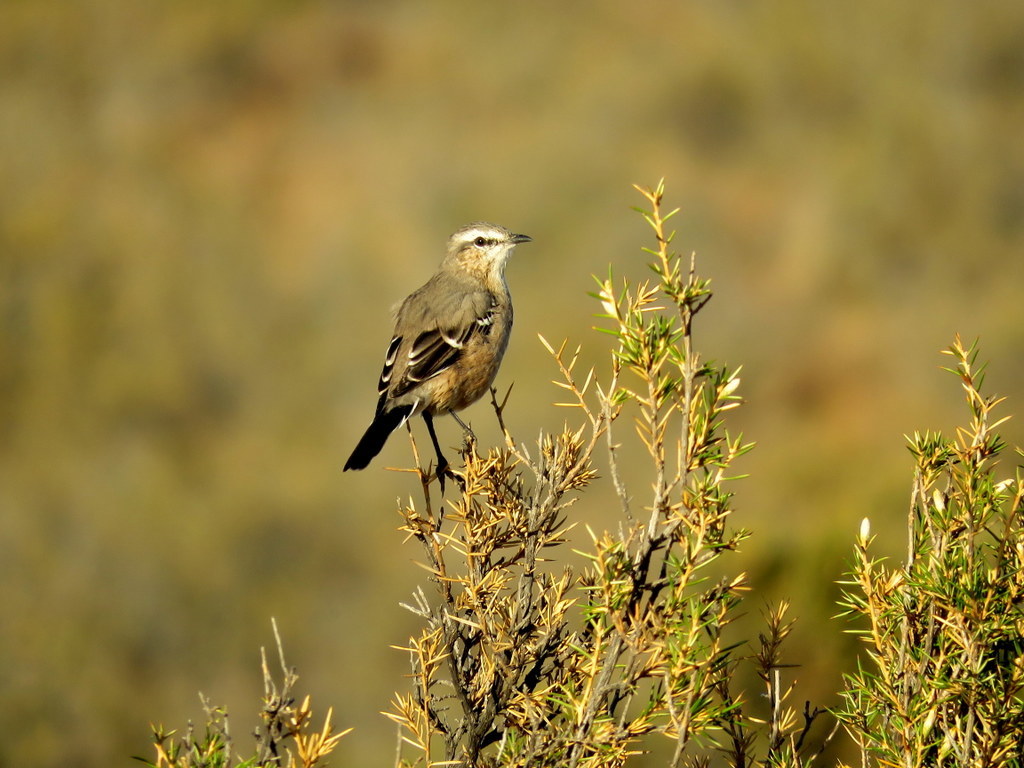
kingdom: Animalia
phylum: Chordata
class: Aves
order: Passeriformes
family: Mimidae
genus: Mimus
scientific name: Mimus patagonicus
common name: Patagonian mockingbird
